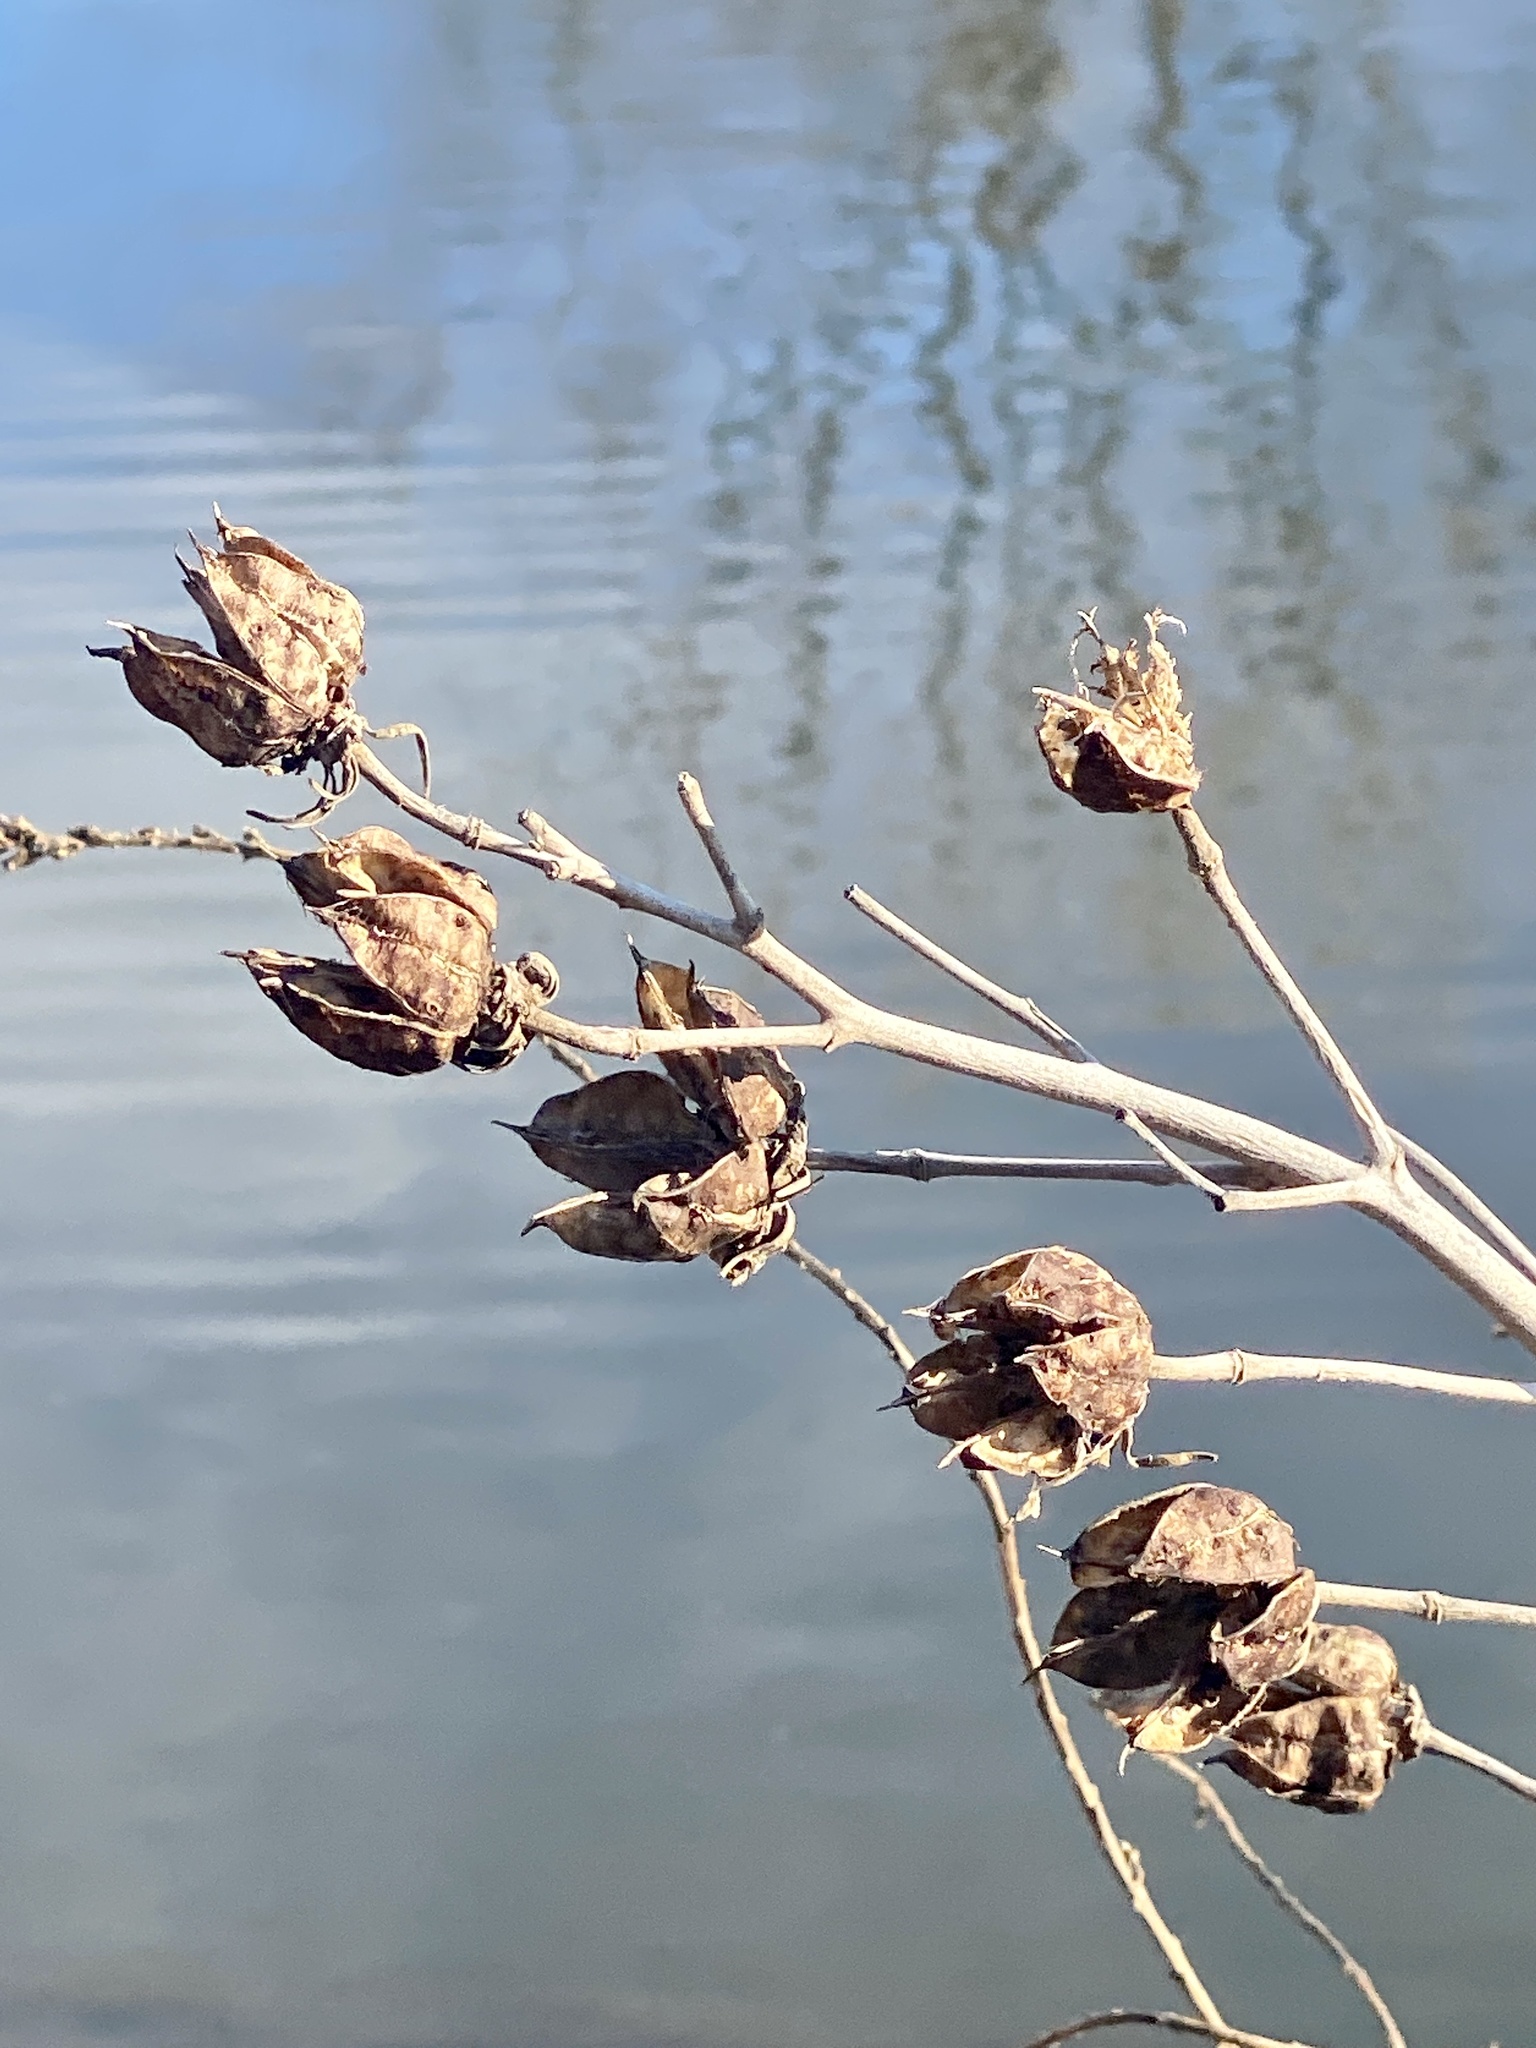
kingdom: Plantae
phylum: Tracheophyta
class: Magnoliopsida
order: Malvales
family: Malvaceae
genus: Hibiscus
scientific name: Hibiscus moscheutos
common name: Common rose-mallow
